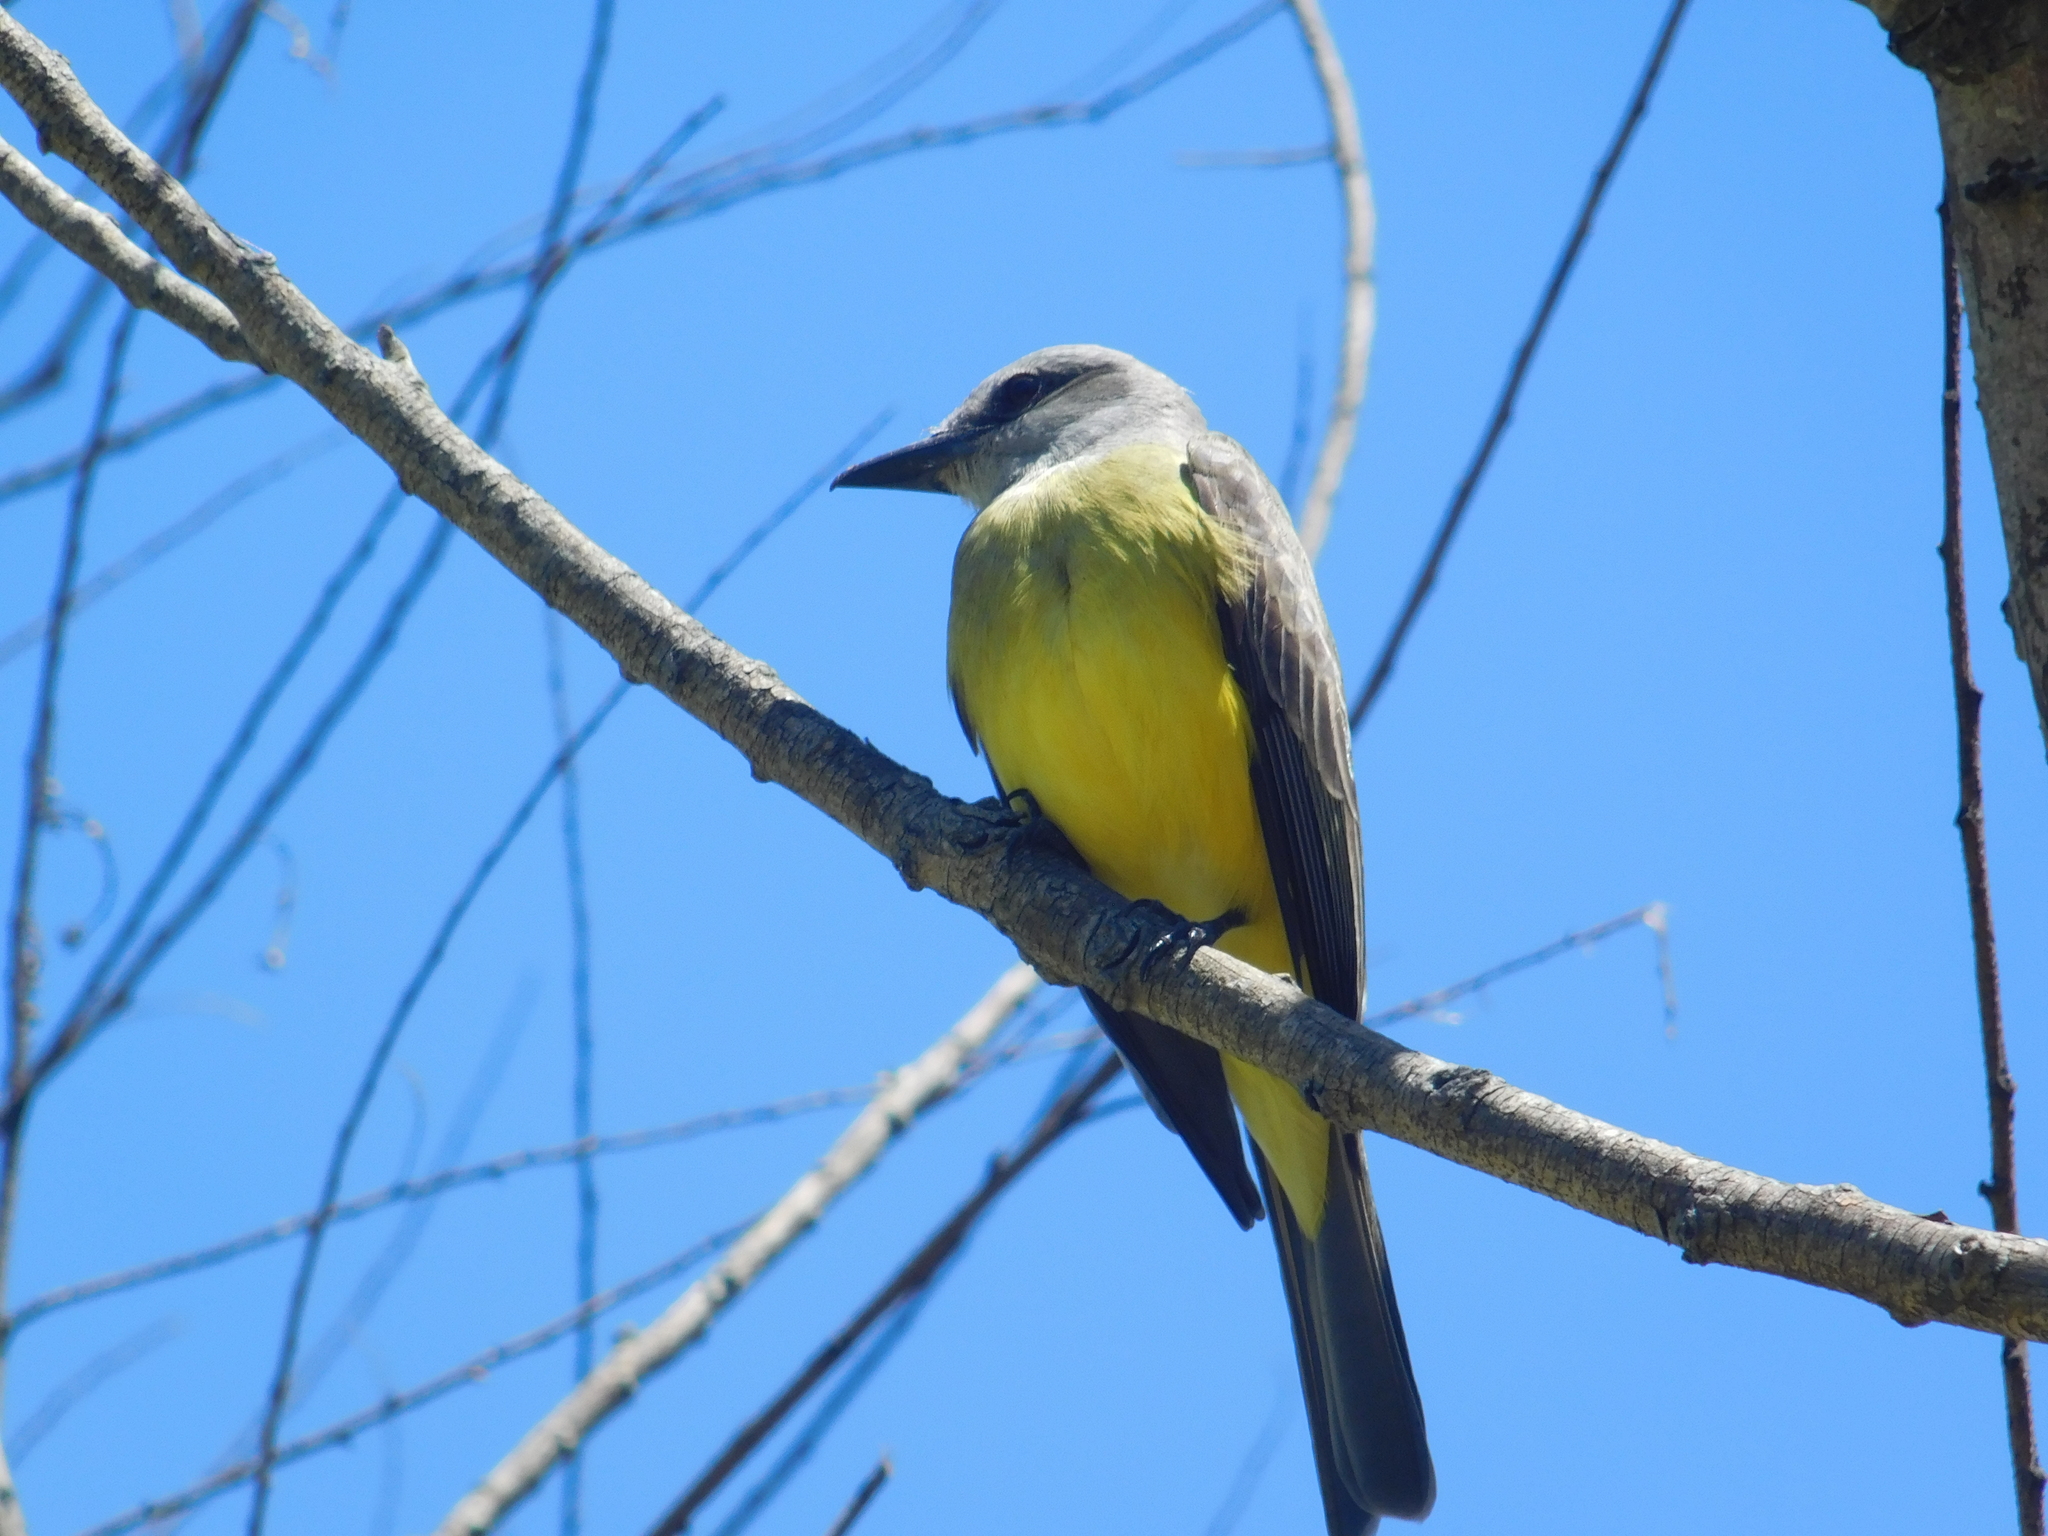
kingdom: Animalia
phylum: Chordata
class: Aves
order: Passeriformes
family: Tyrannidae
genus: Tyrannus
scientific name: Tyrannus melancholicus
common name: Tropical kingbird
